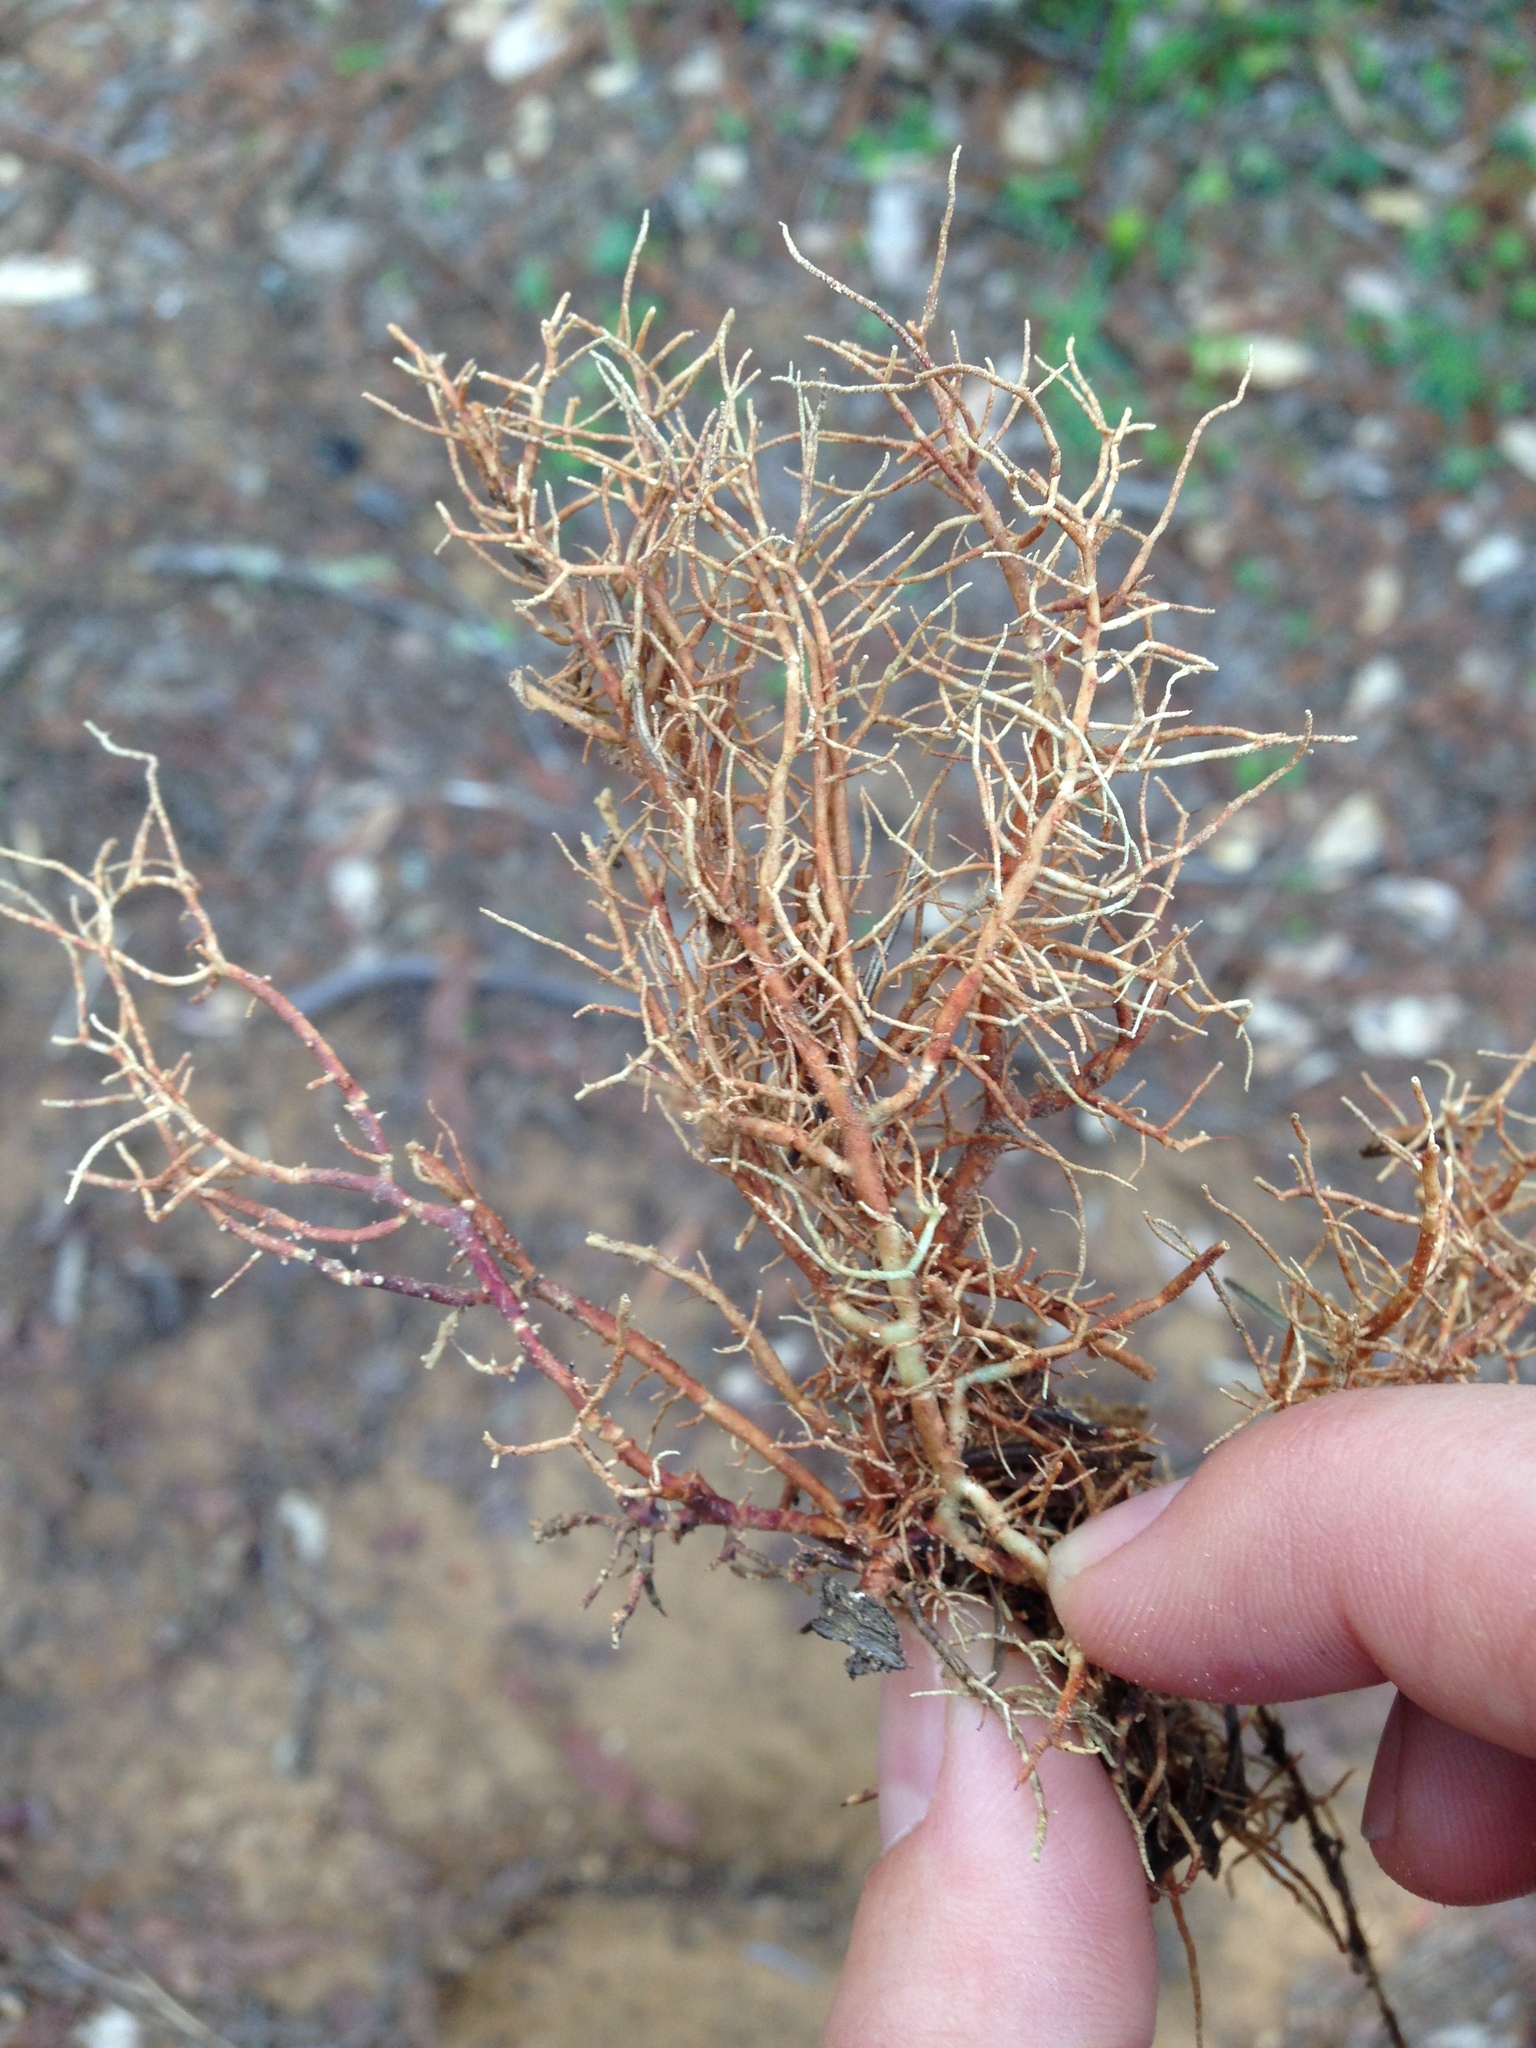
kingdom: Fungi
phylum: Ascomycota
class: Lecanoromycetes
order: Lecanorales
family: Parmeliaceae
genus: Usnea
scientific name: Usnea rubicunda
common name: Red beard lichen
